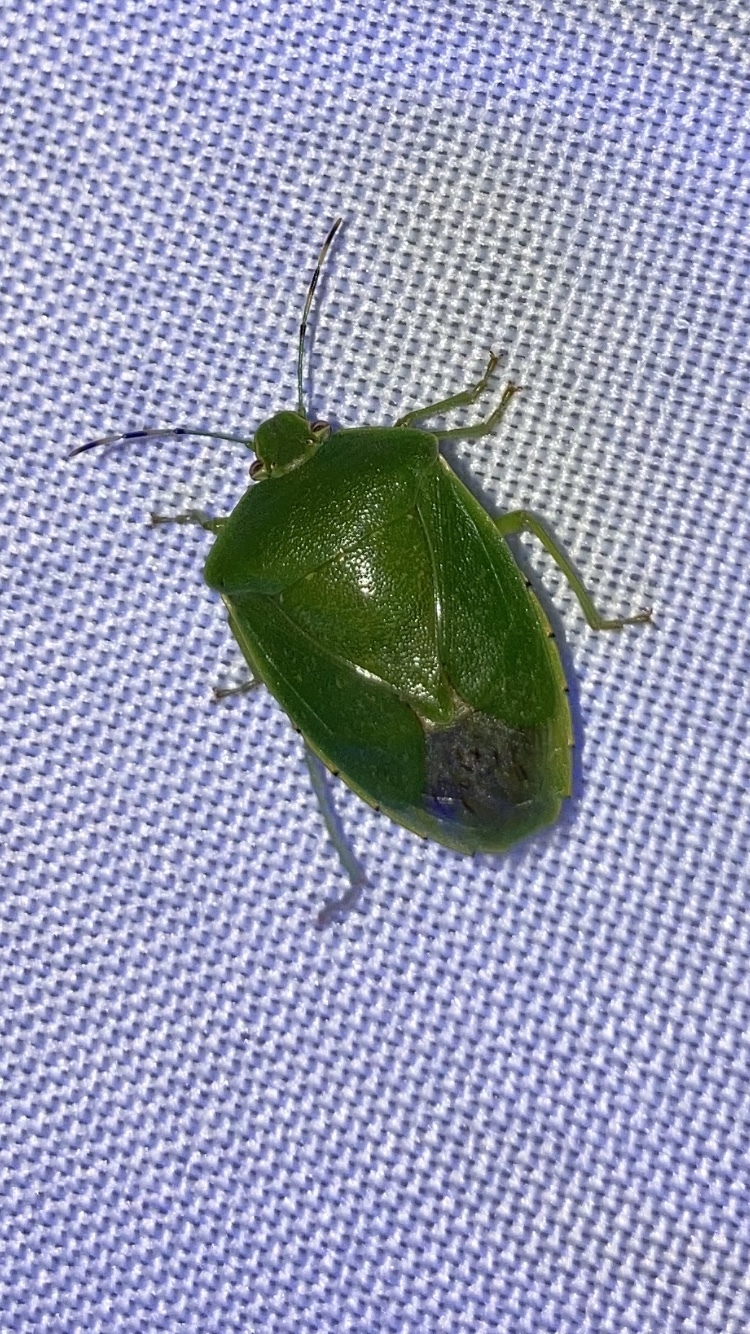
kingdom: Animalia
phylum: Arthropoda
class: Insecta
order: Hemiptera
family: Pentatomidae
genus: Chinavia
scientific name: Chinavia hilaris
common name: Green stink bug
